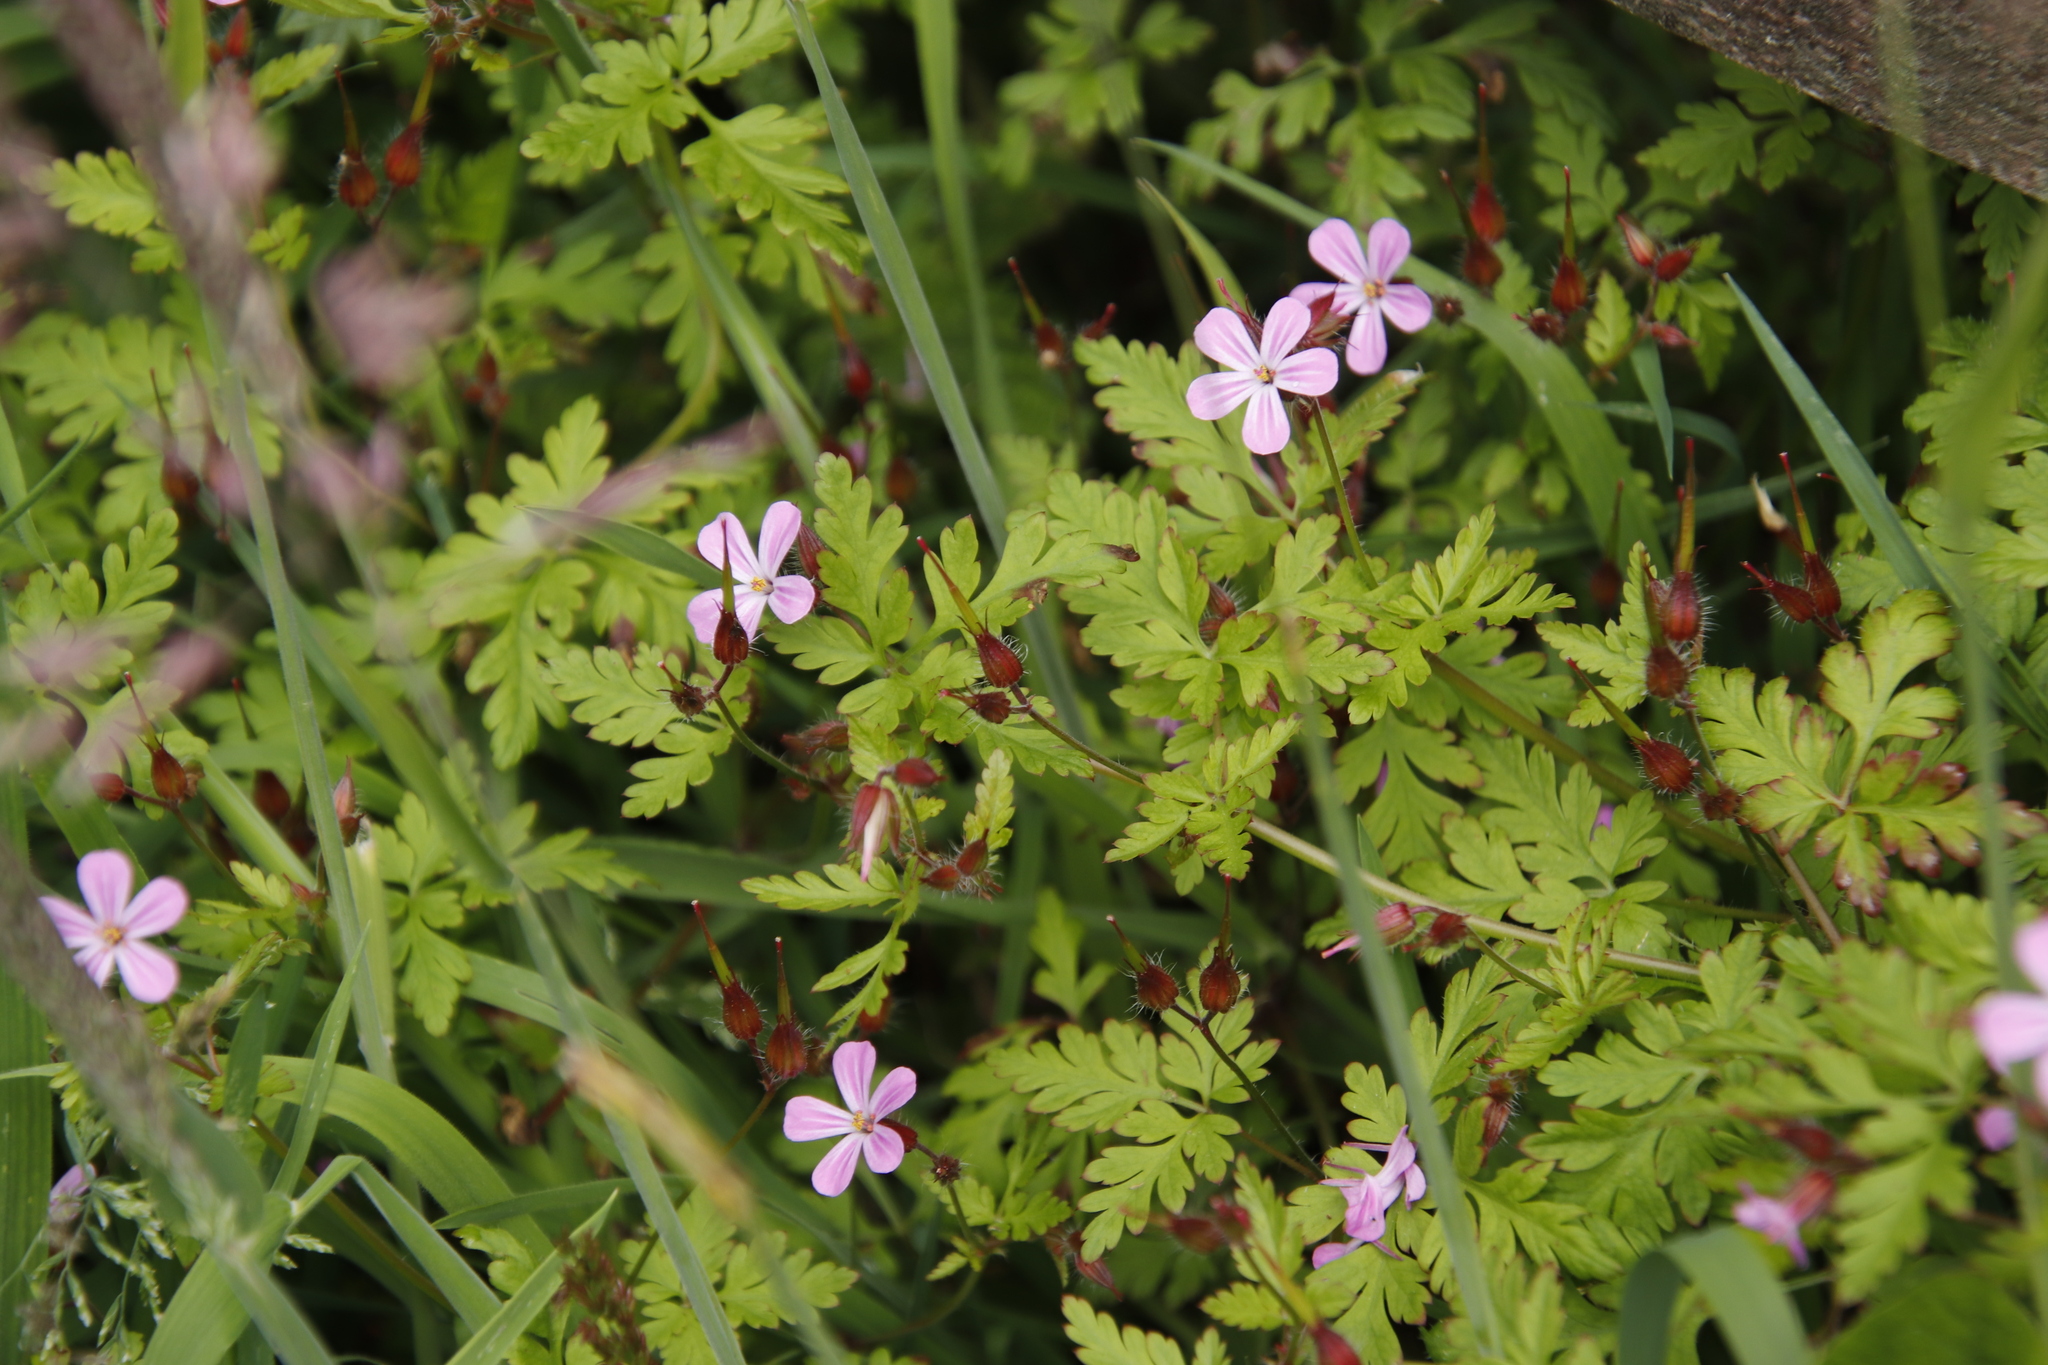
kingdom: Plantae
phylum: Tracheophyta
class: Magnoliopsida
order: Geraniales
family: Geraniaceae
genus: Geranium
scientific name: Geranium robertianum
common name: Herb-robert
